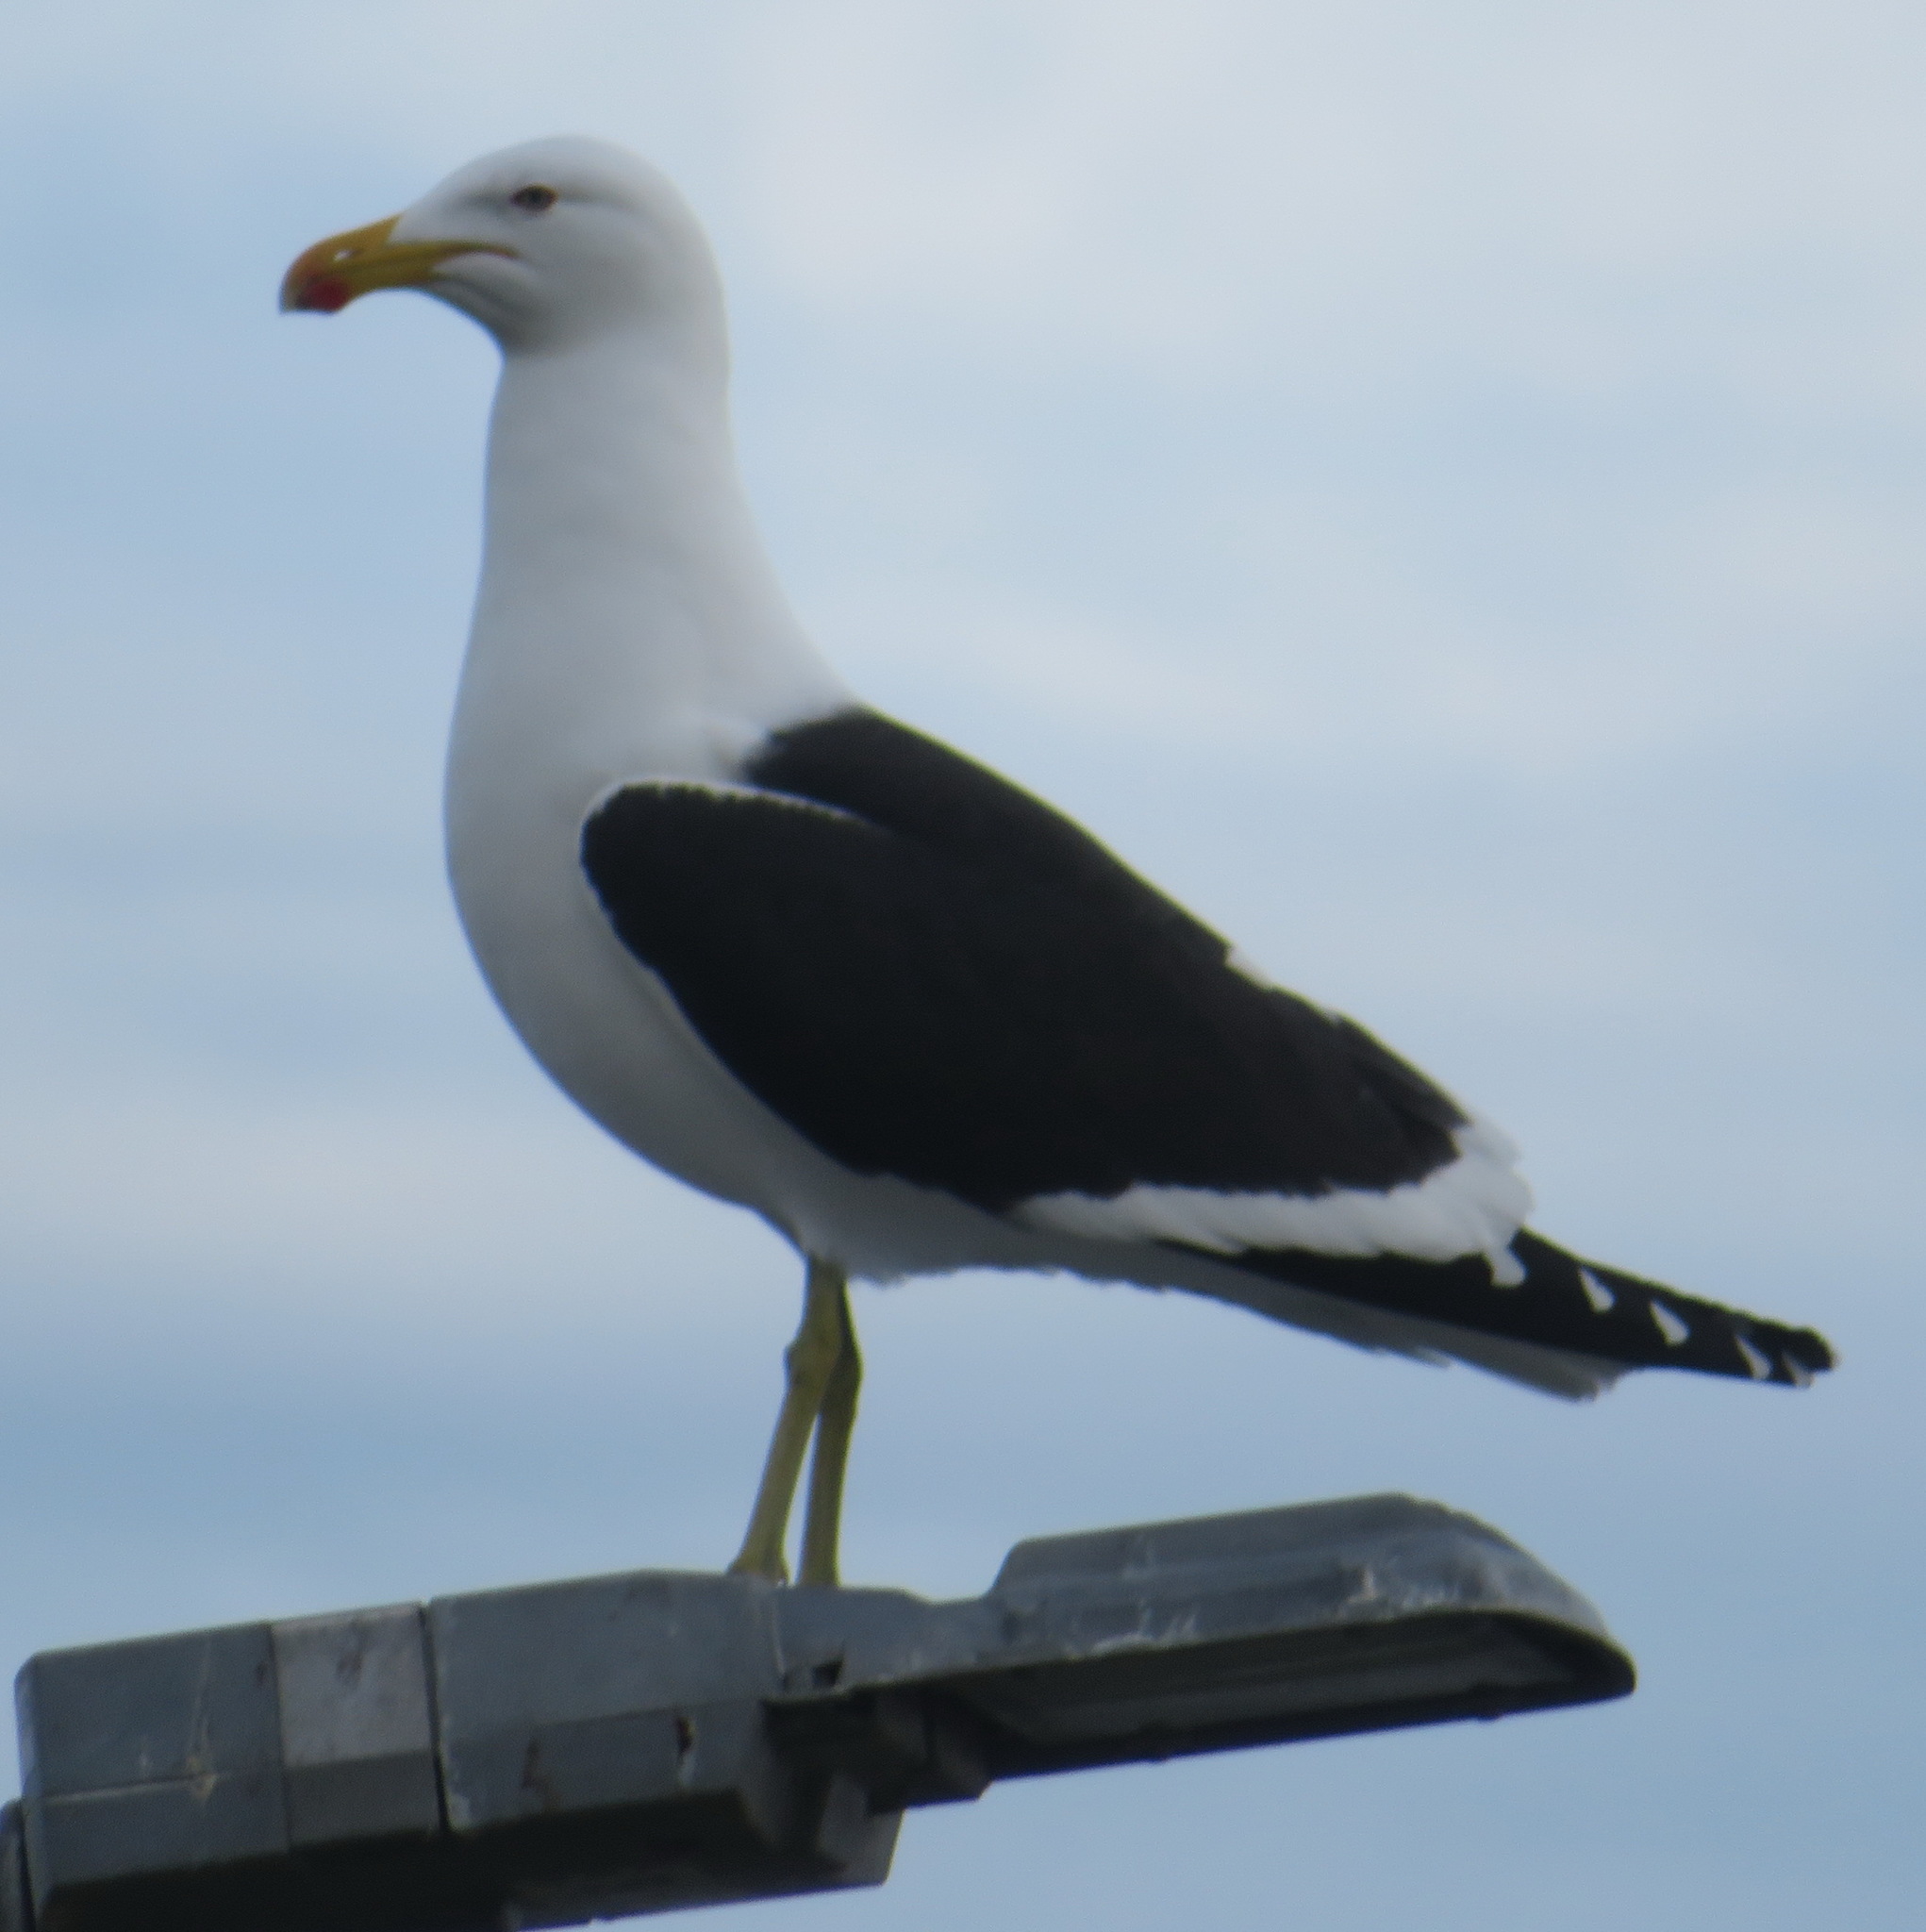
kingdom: Animalia
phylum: Chordata
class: Aves
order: Charadriiformes
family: Laridae
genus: Larus
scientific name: Larus dominicanus
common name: Kelp gull
